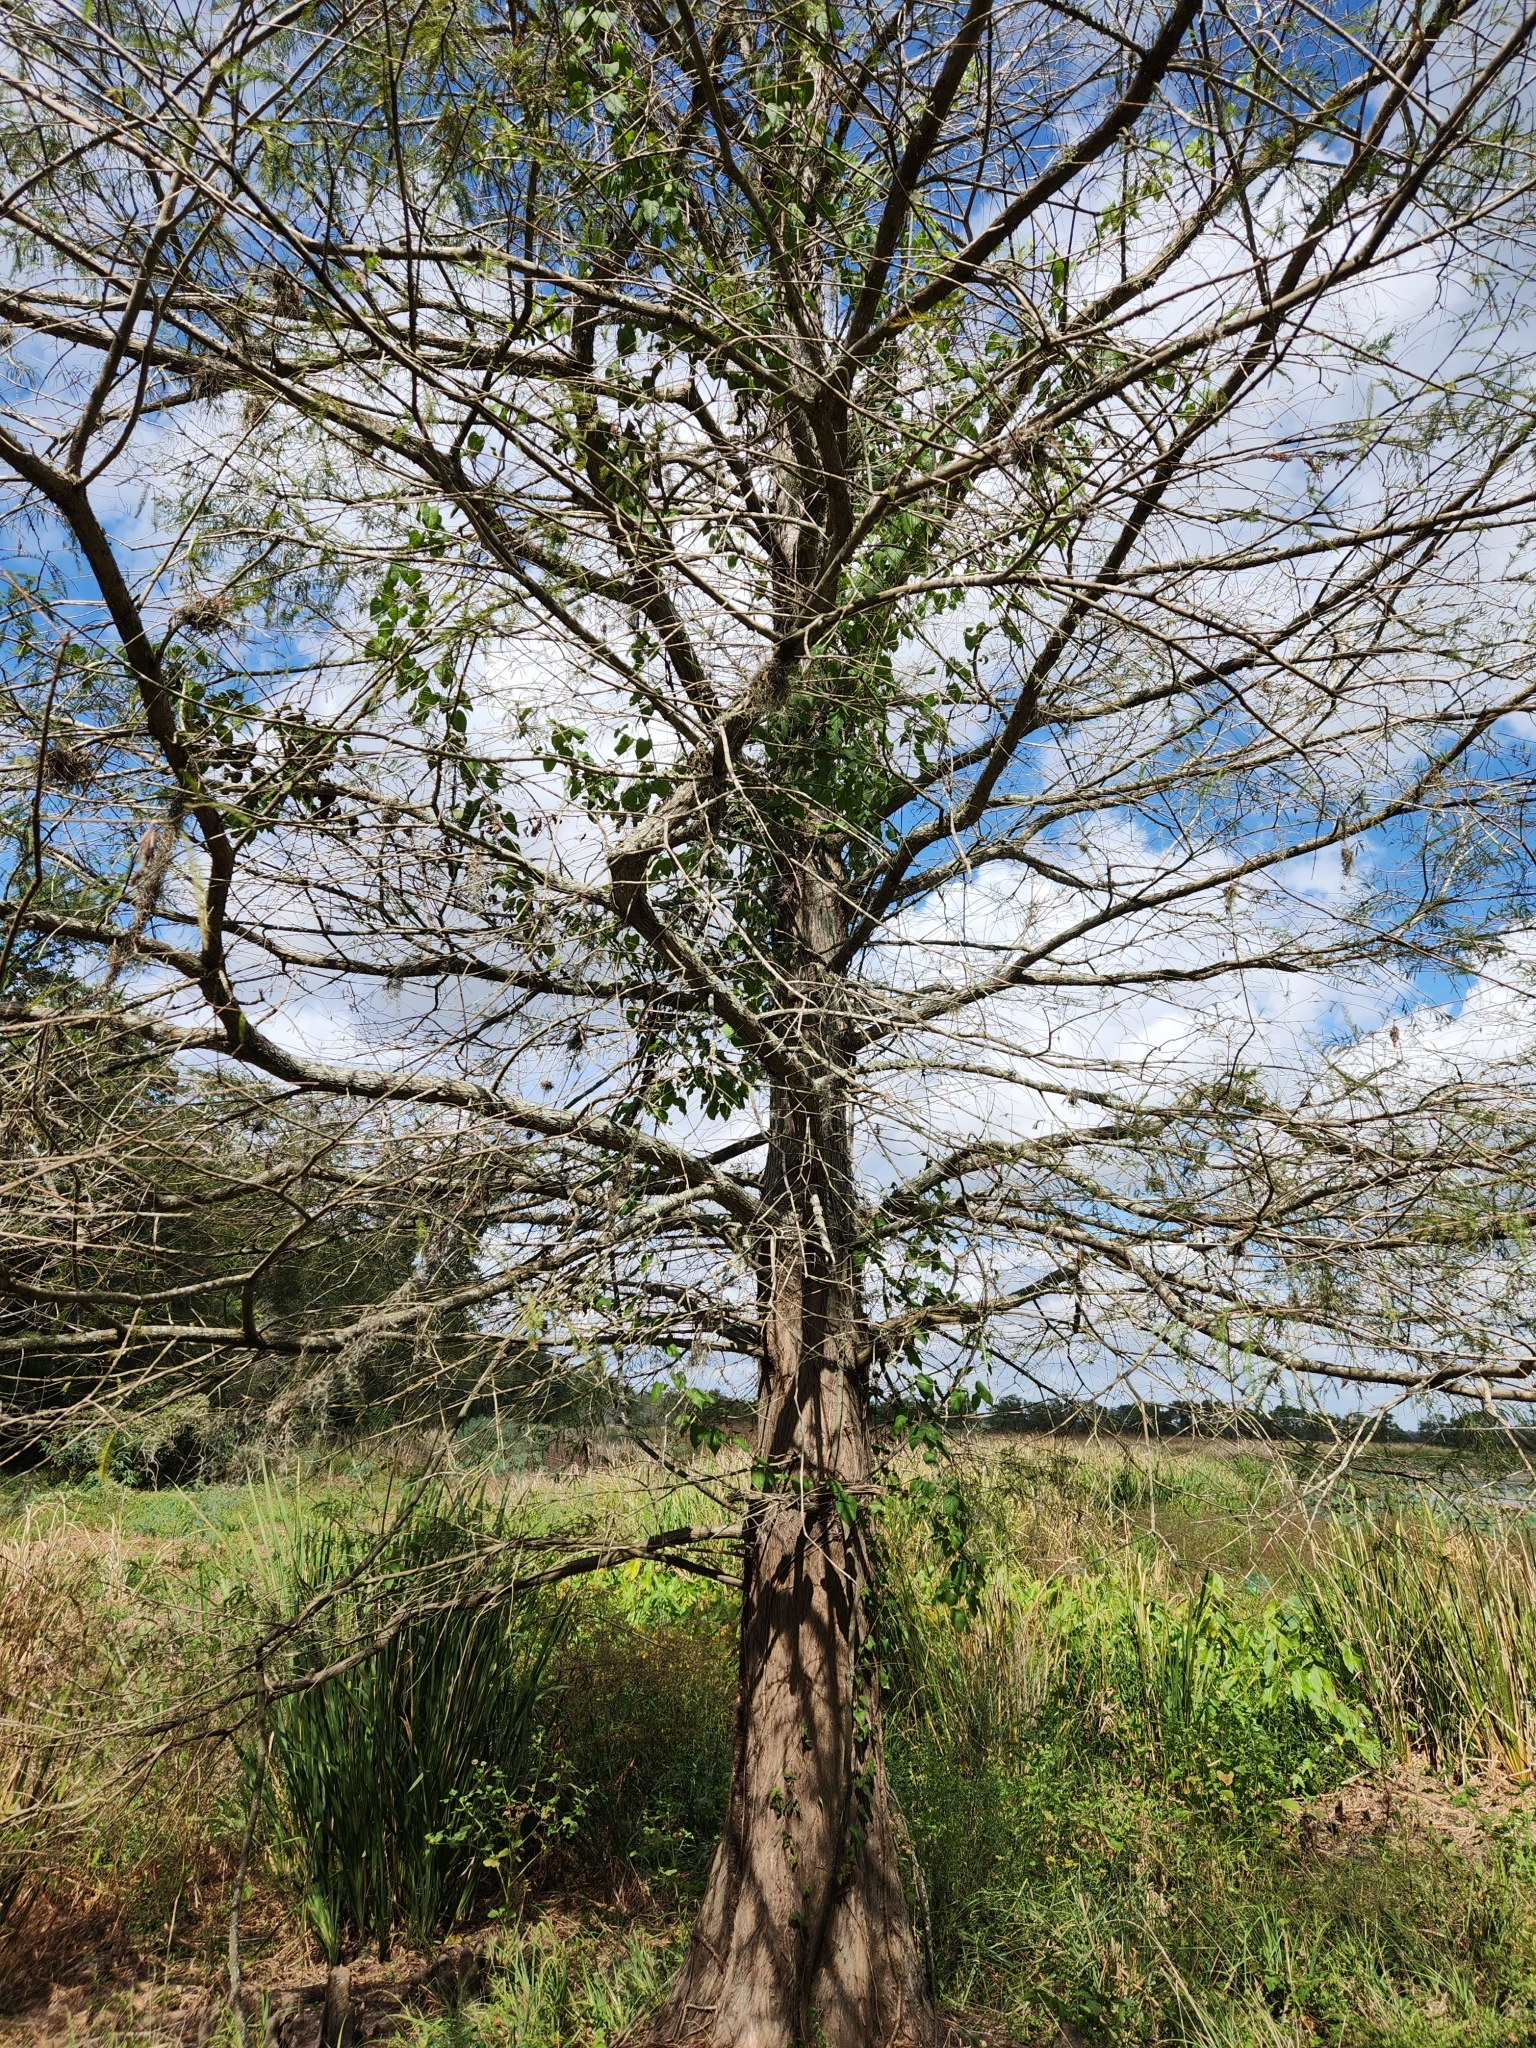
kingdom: Plantae
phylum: Tracheophyta
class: Pinopsida
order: Pinales
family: Cupressaceae
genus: Taxodium
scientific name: Taxodium distichum
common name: Bald cypress
